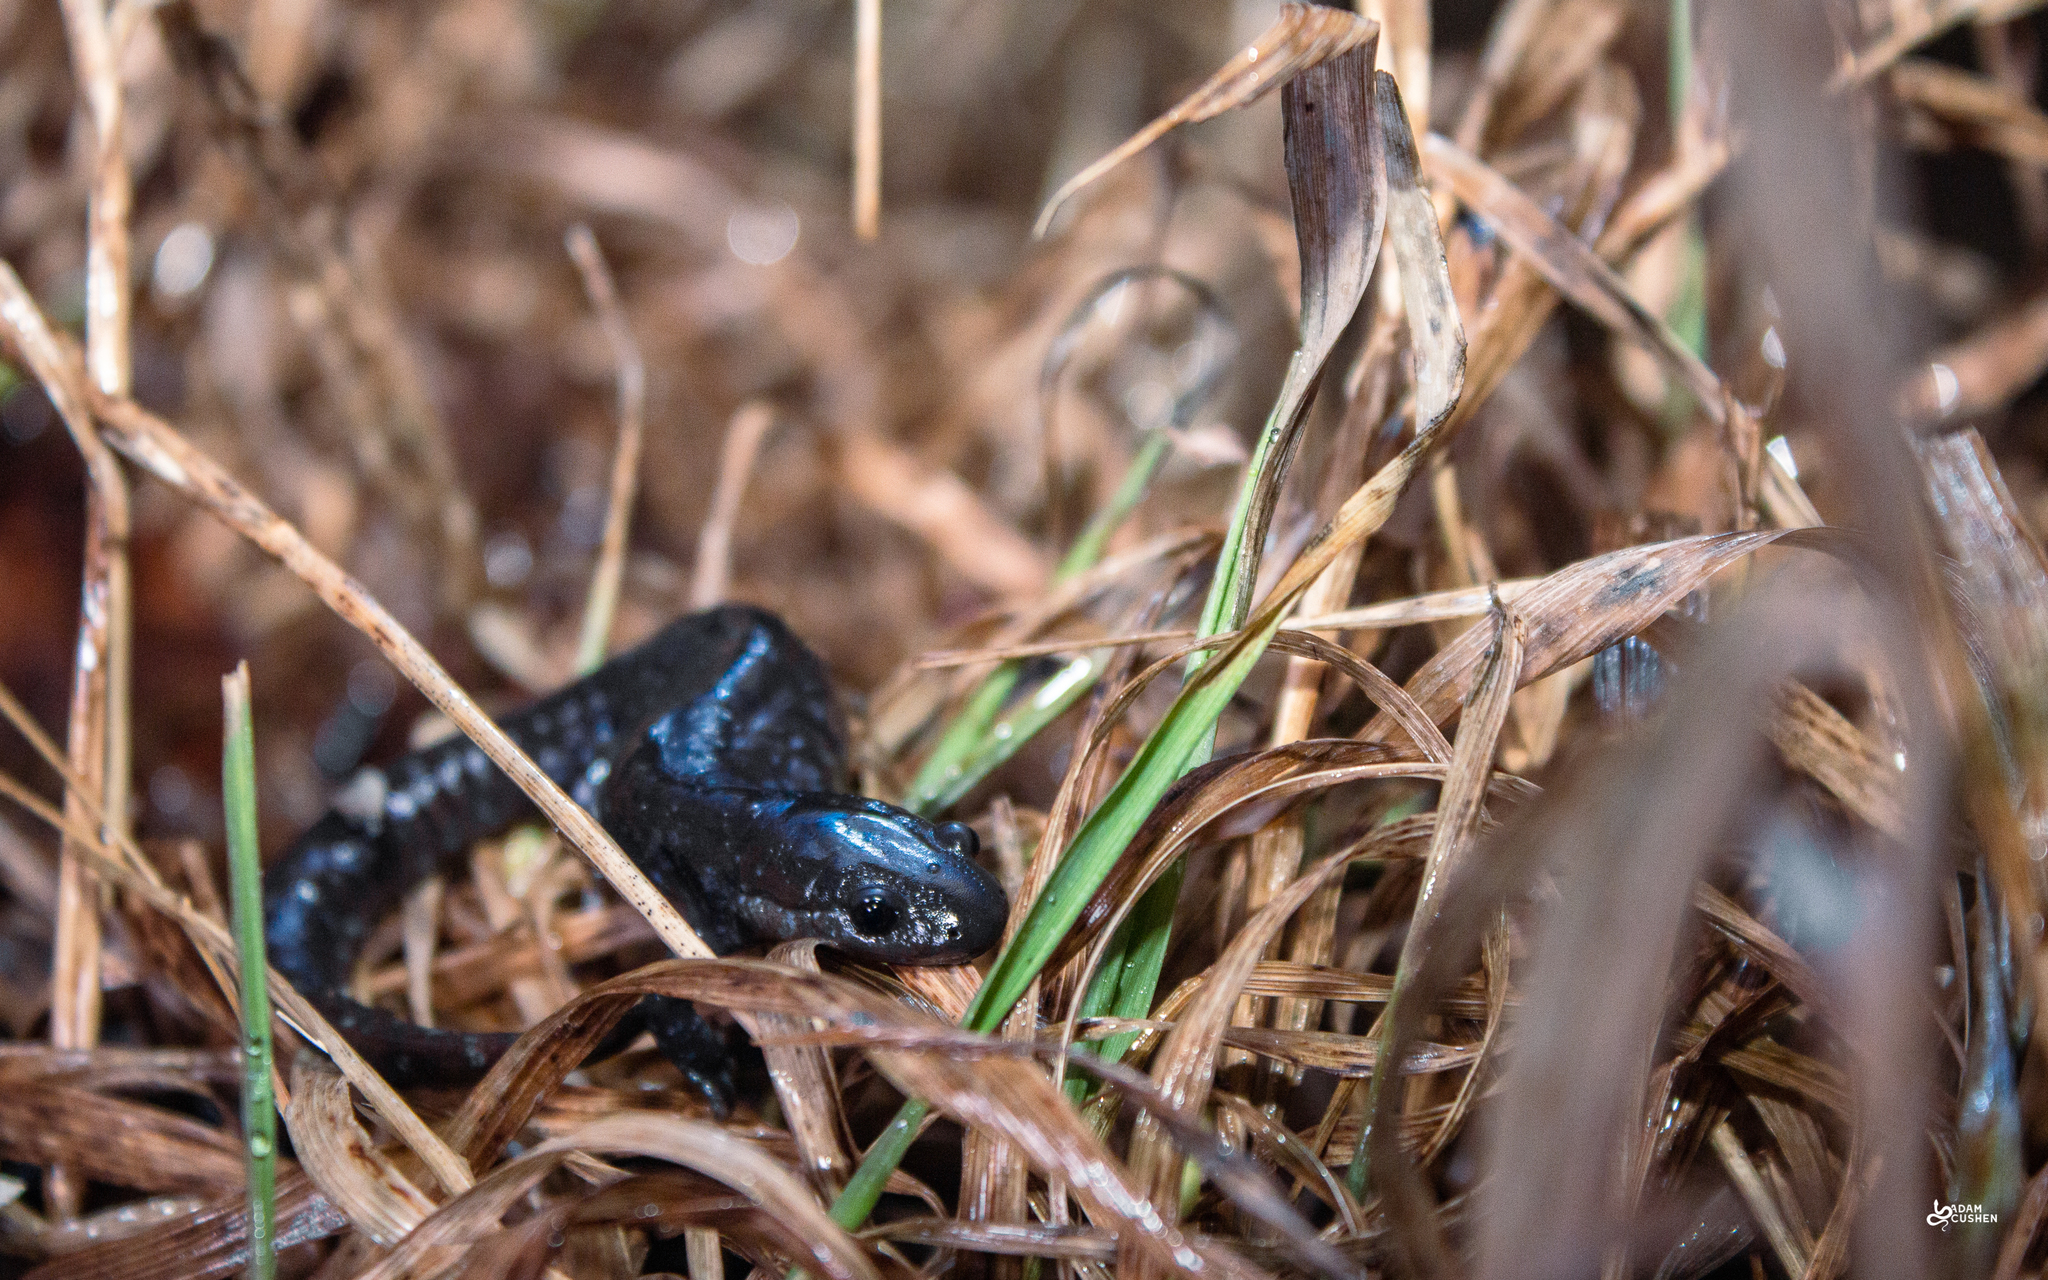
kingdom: Animalia
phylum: Chordata
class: Amphibia
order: Caudata
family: Ambystomatidae
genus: Ambystoma
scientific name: Ambystoma laterale
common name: Blue-spotted salamander
